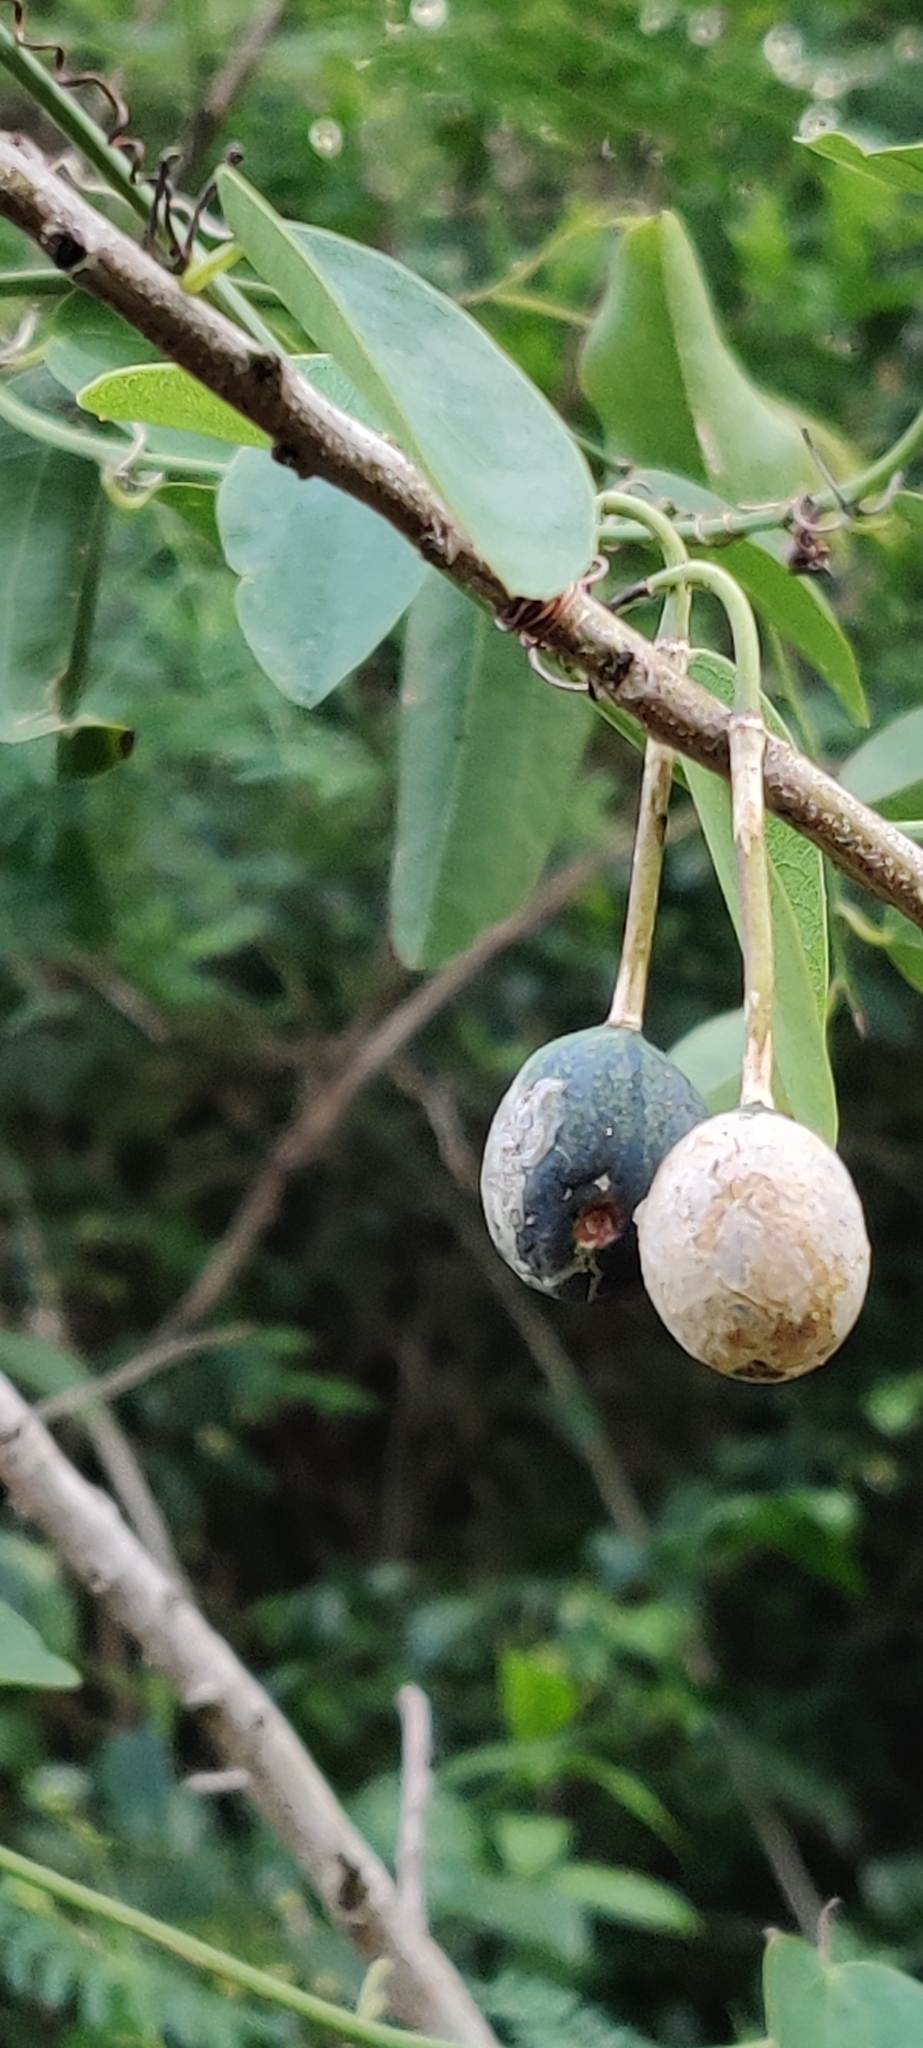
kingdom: Plantae
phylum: Tracheophyta
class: Magnoliopsida
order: Malpighiales
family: Passifloraceae
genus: Passiflora
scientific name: Passiflora pallida
